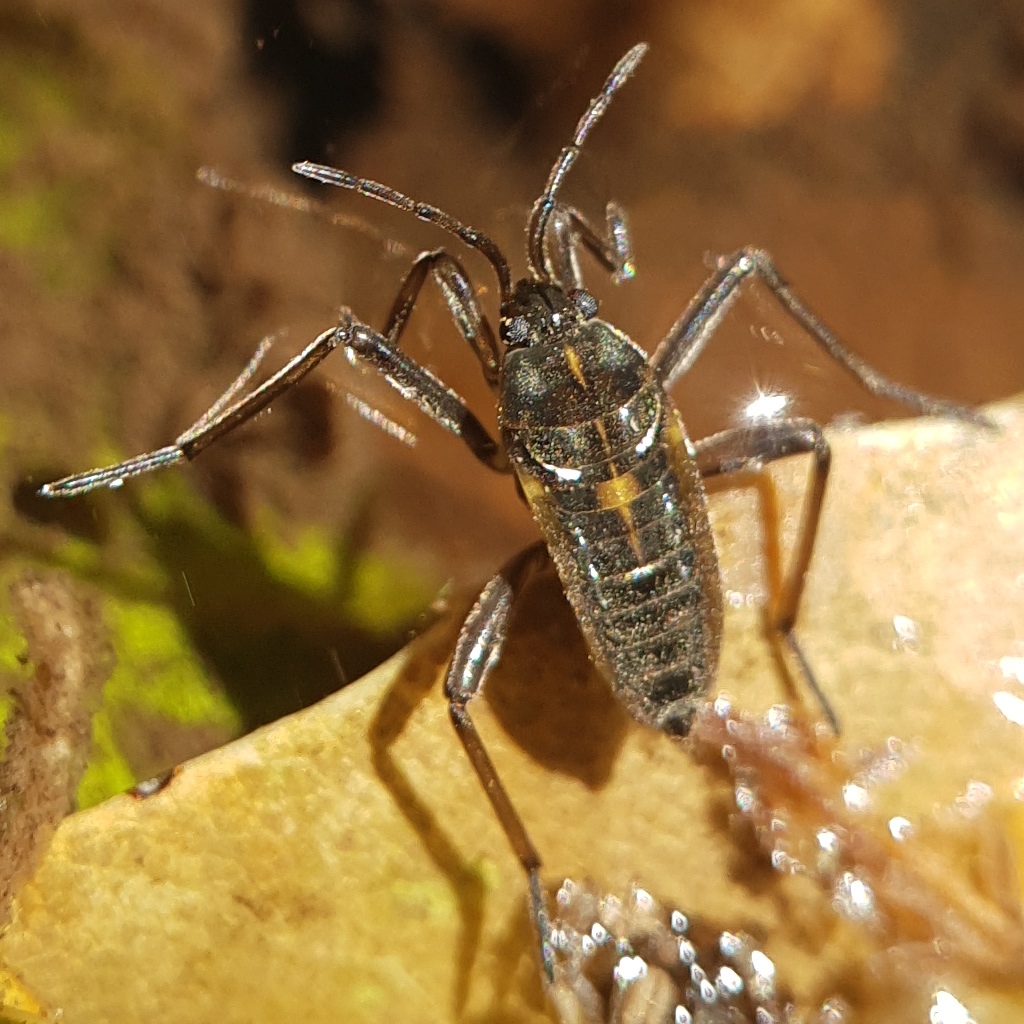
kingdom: Animalia
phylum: Arthropoda
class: Insecta
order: Hemiptera
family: Veliidae
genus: Plesiovelia
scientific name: Plesiovelia
